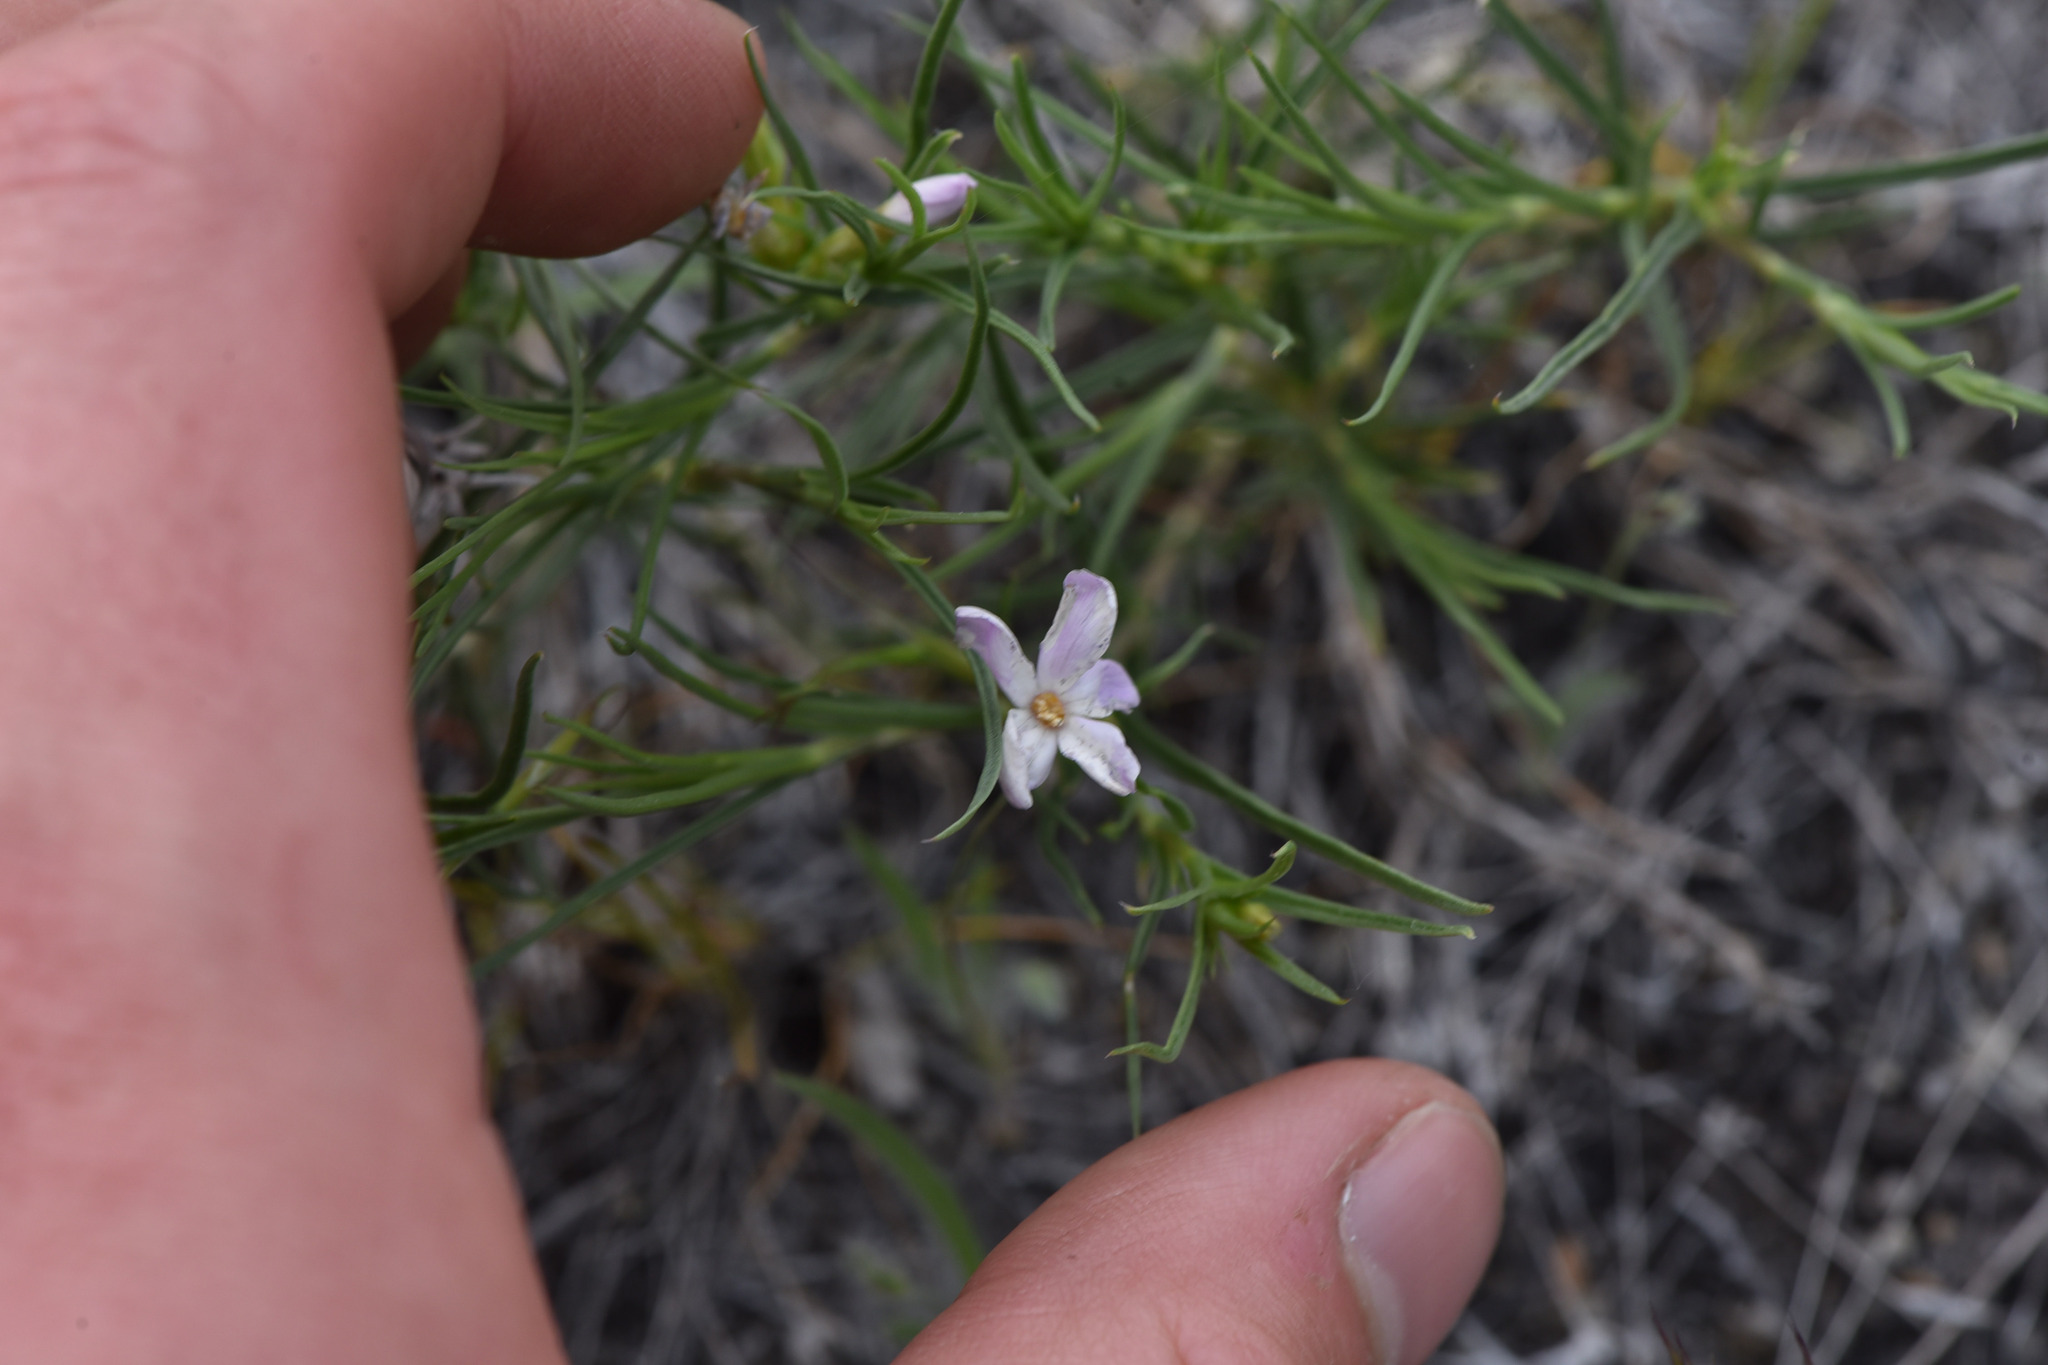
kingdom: Plantae
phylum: Tracheophyta
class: Magnoliopsida
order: Ericales
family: Polemoniaceae
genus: Phlox
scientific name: Phlox longifolia
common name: Longleaf phlox
